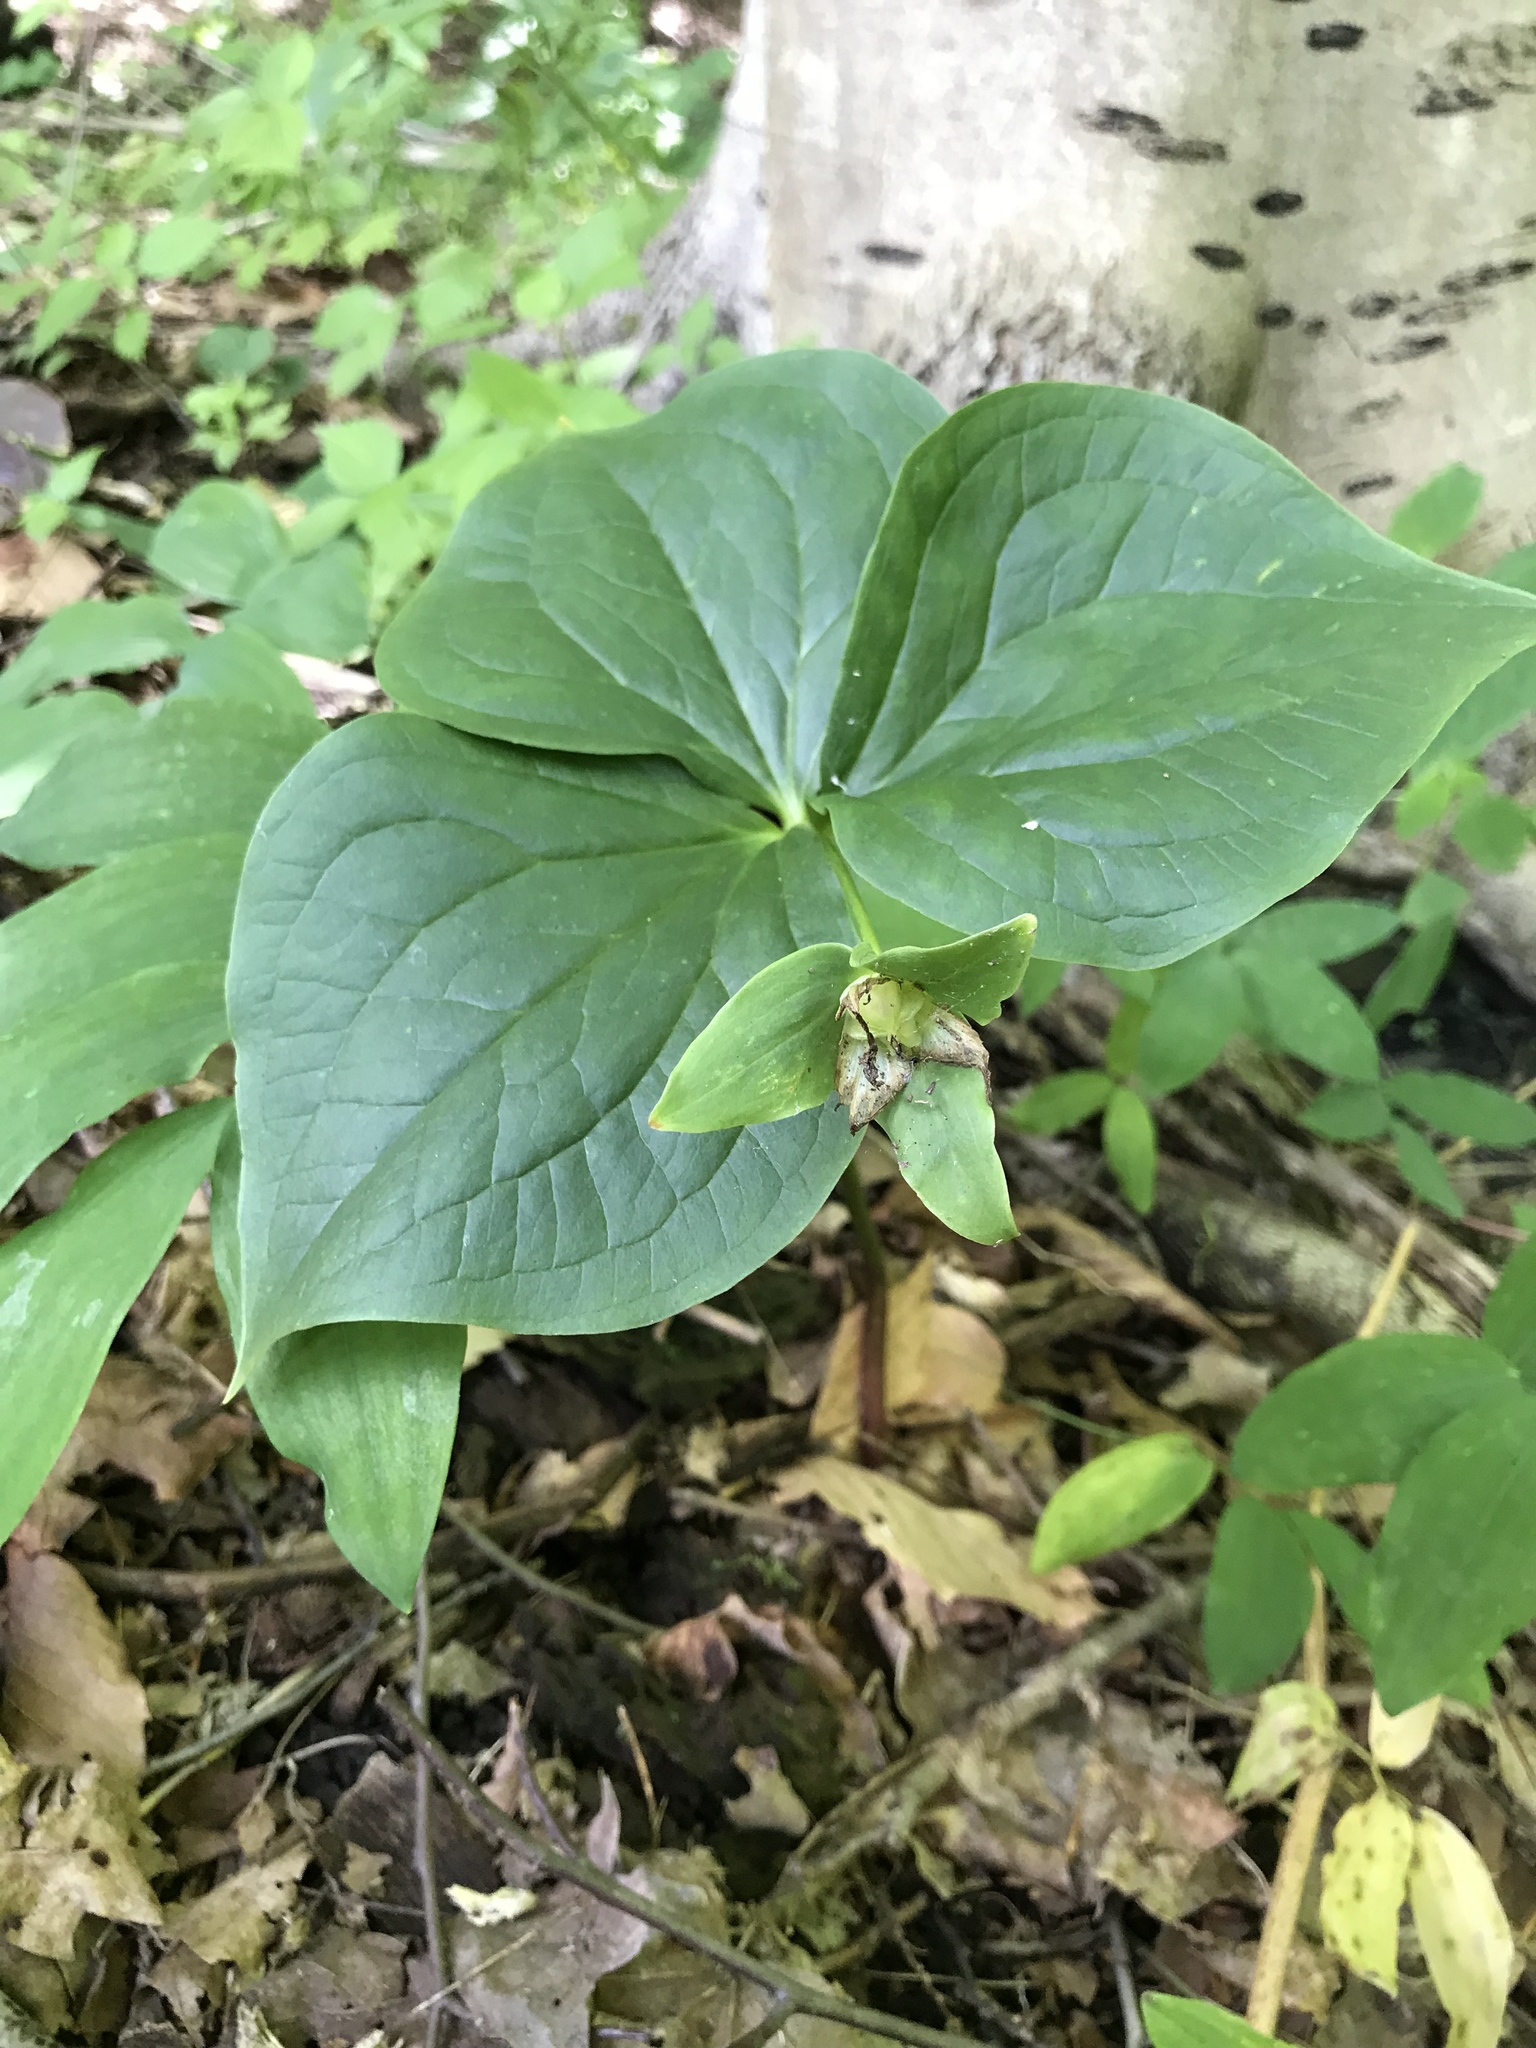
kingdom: Plantae
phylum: Tracheophyta
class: Liliopsida
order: Liliales
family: Melanthiaceae
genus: Trillium
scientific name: Trillium grandiflorum
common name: Great white trillium
